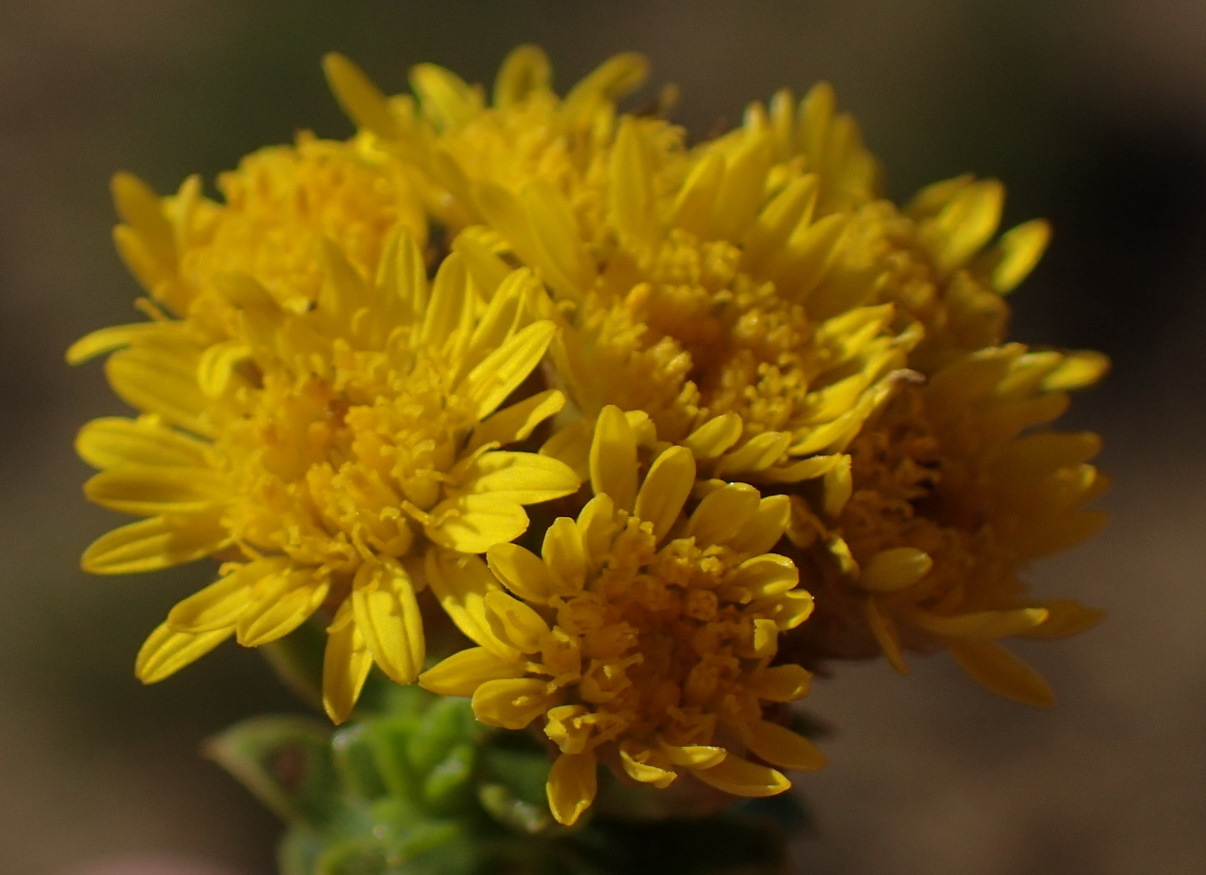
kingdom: Plantae
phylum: Tracheophyta
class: Magnoliopsida
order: Asterales
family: Asteraceae
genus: Oedera
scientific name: Oedera squarrosa
